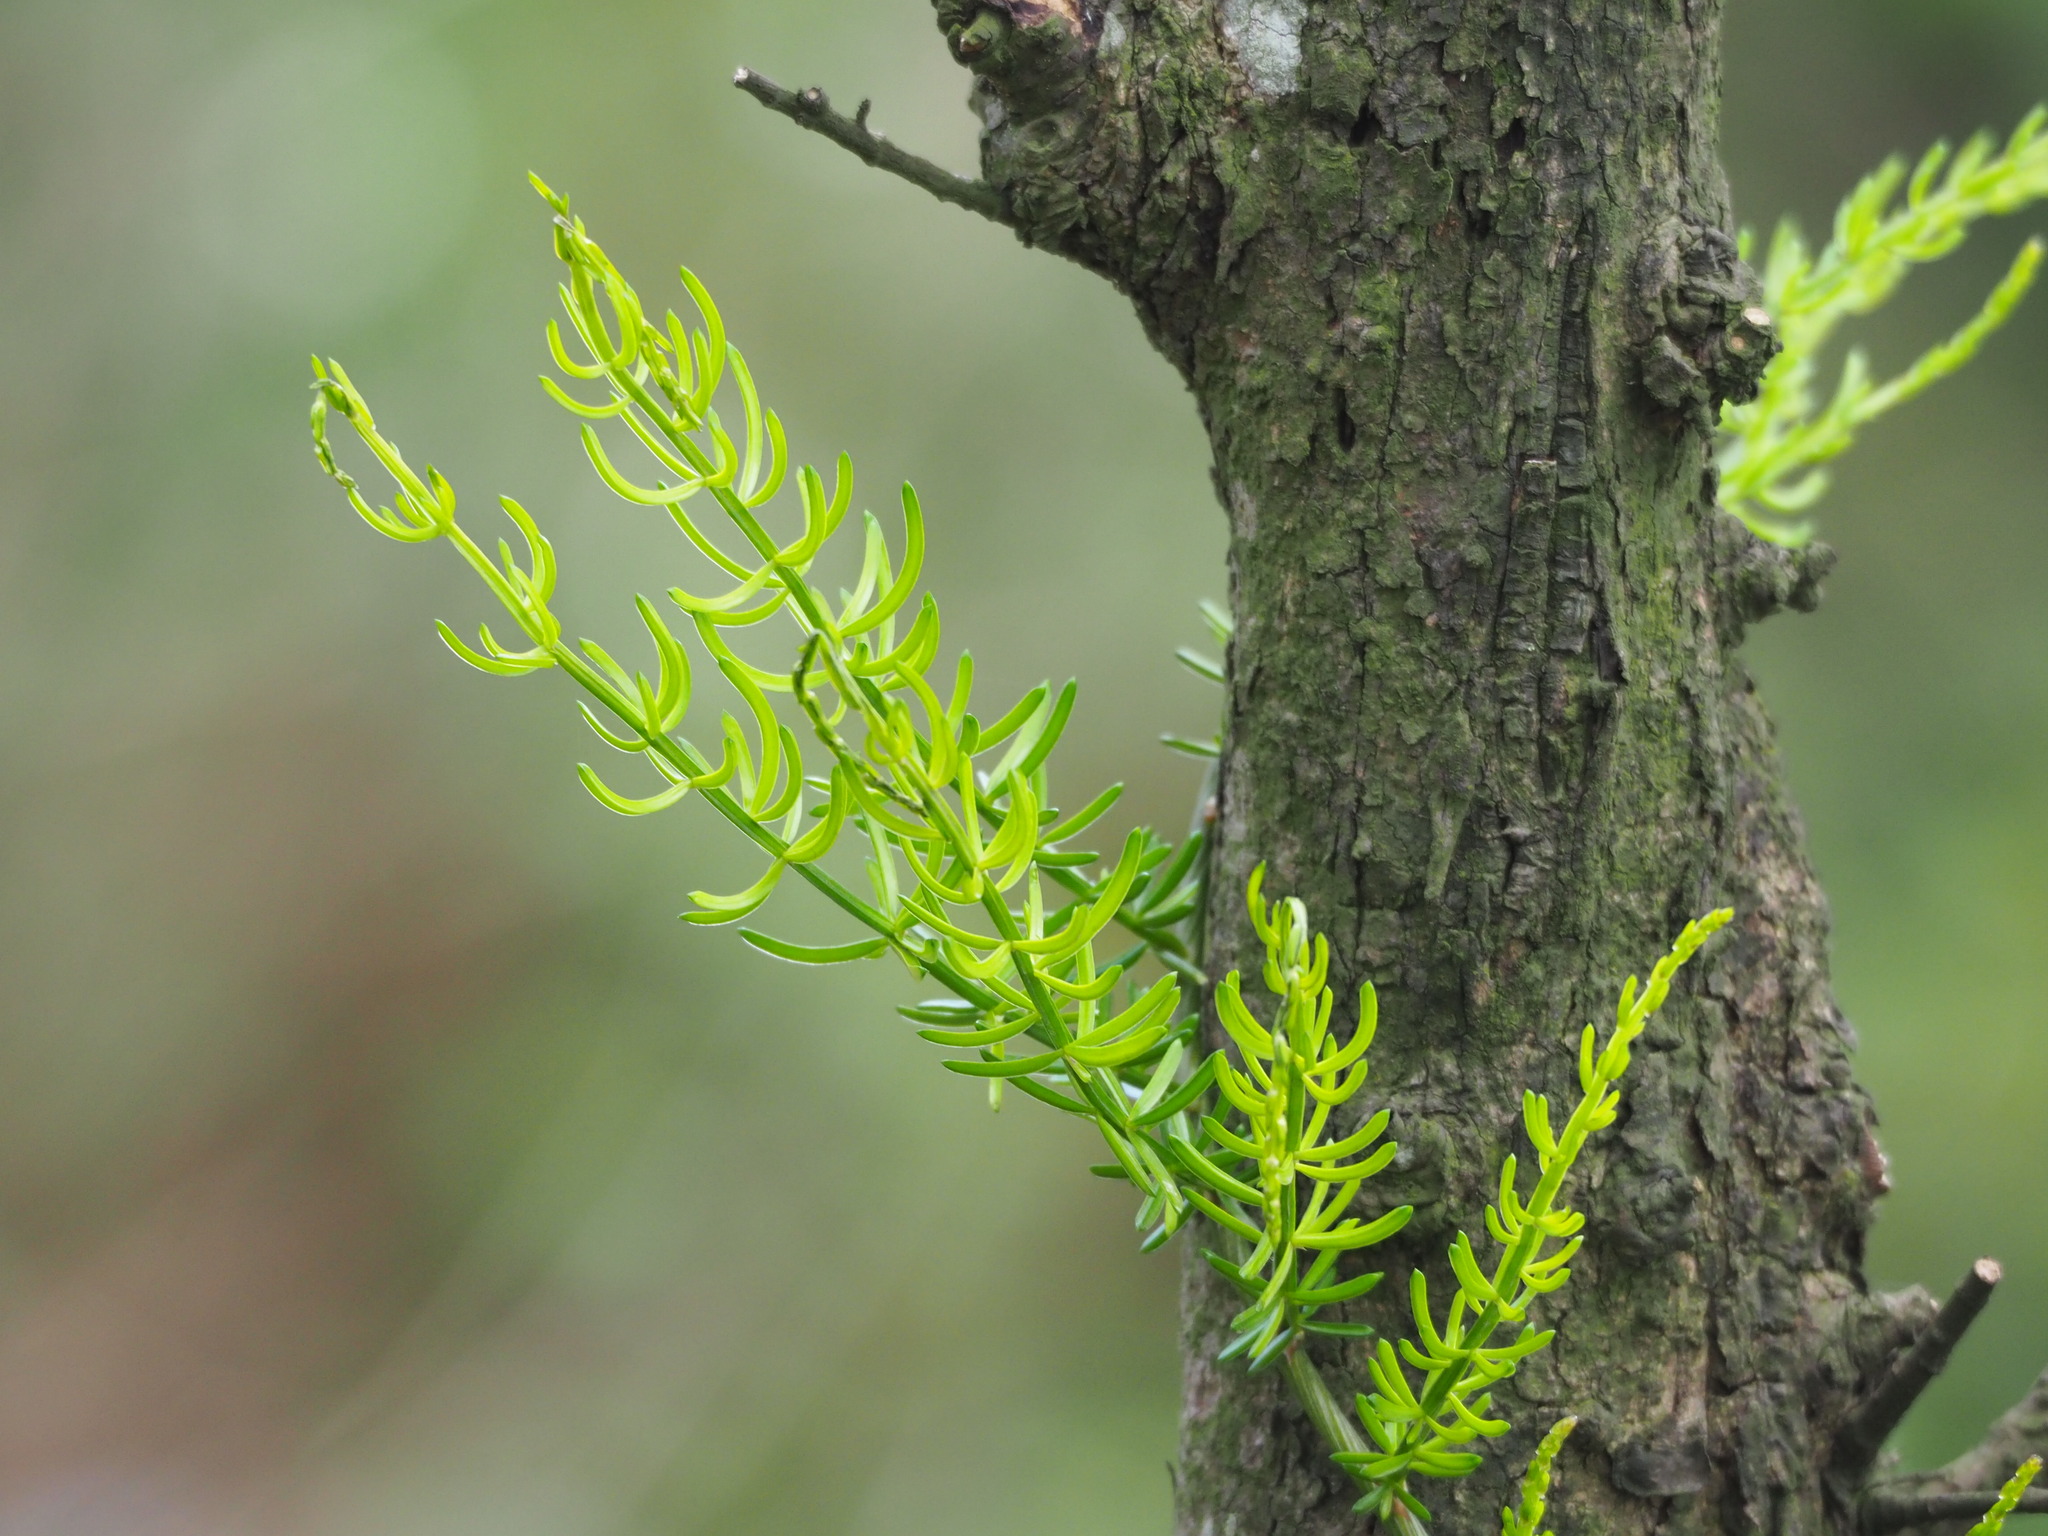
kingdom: Plantae
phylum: Tracheophyta
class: Liliopsida
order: Asparagales
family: Asparagaceae
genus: Asparagus
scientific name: Asparagus cochinchinensis
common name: Chinese asparagus
